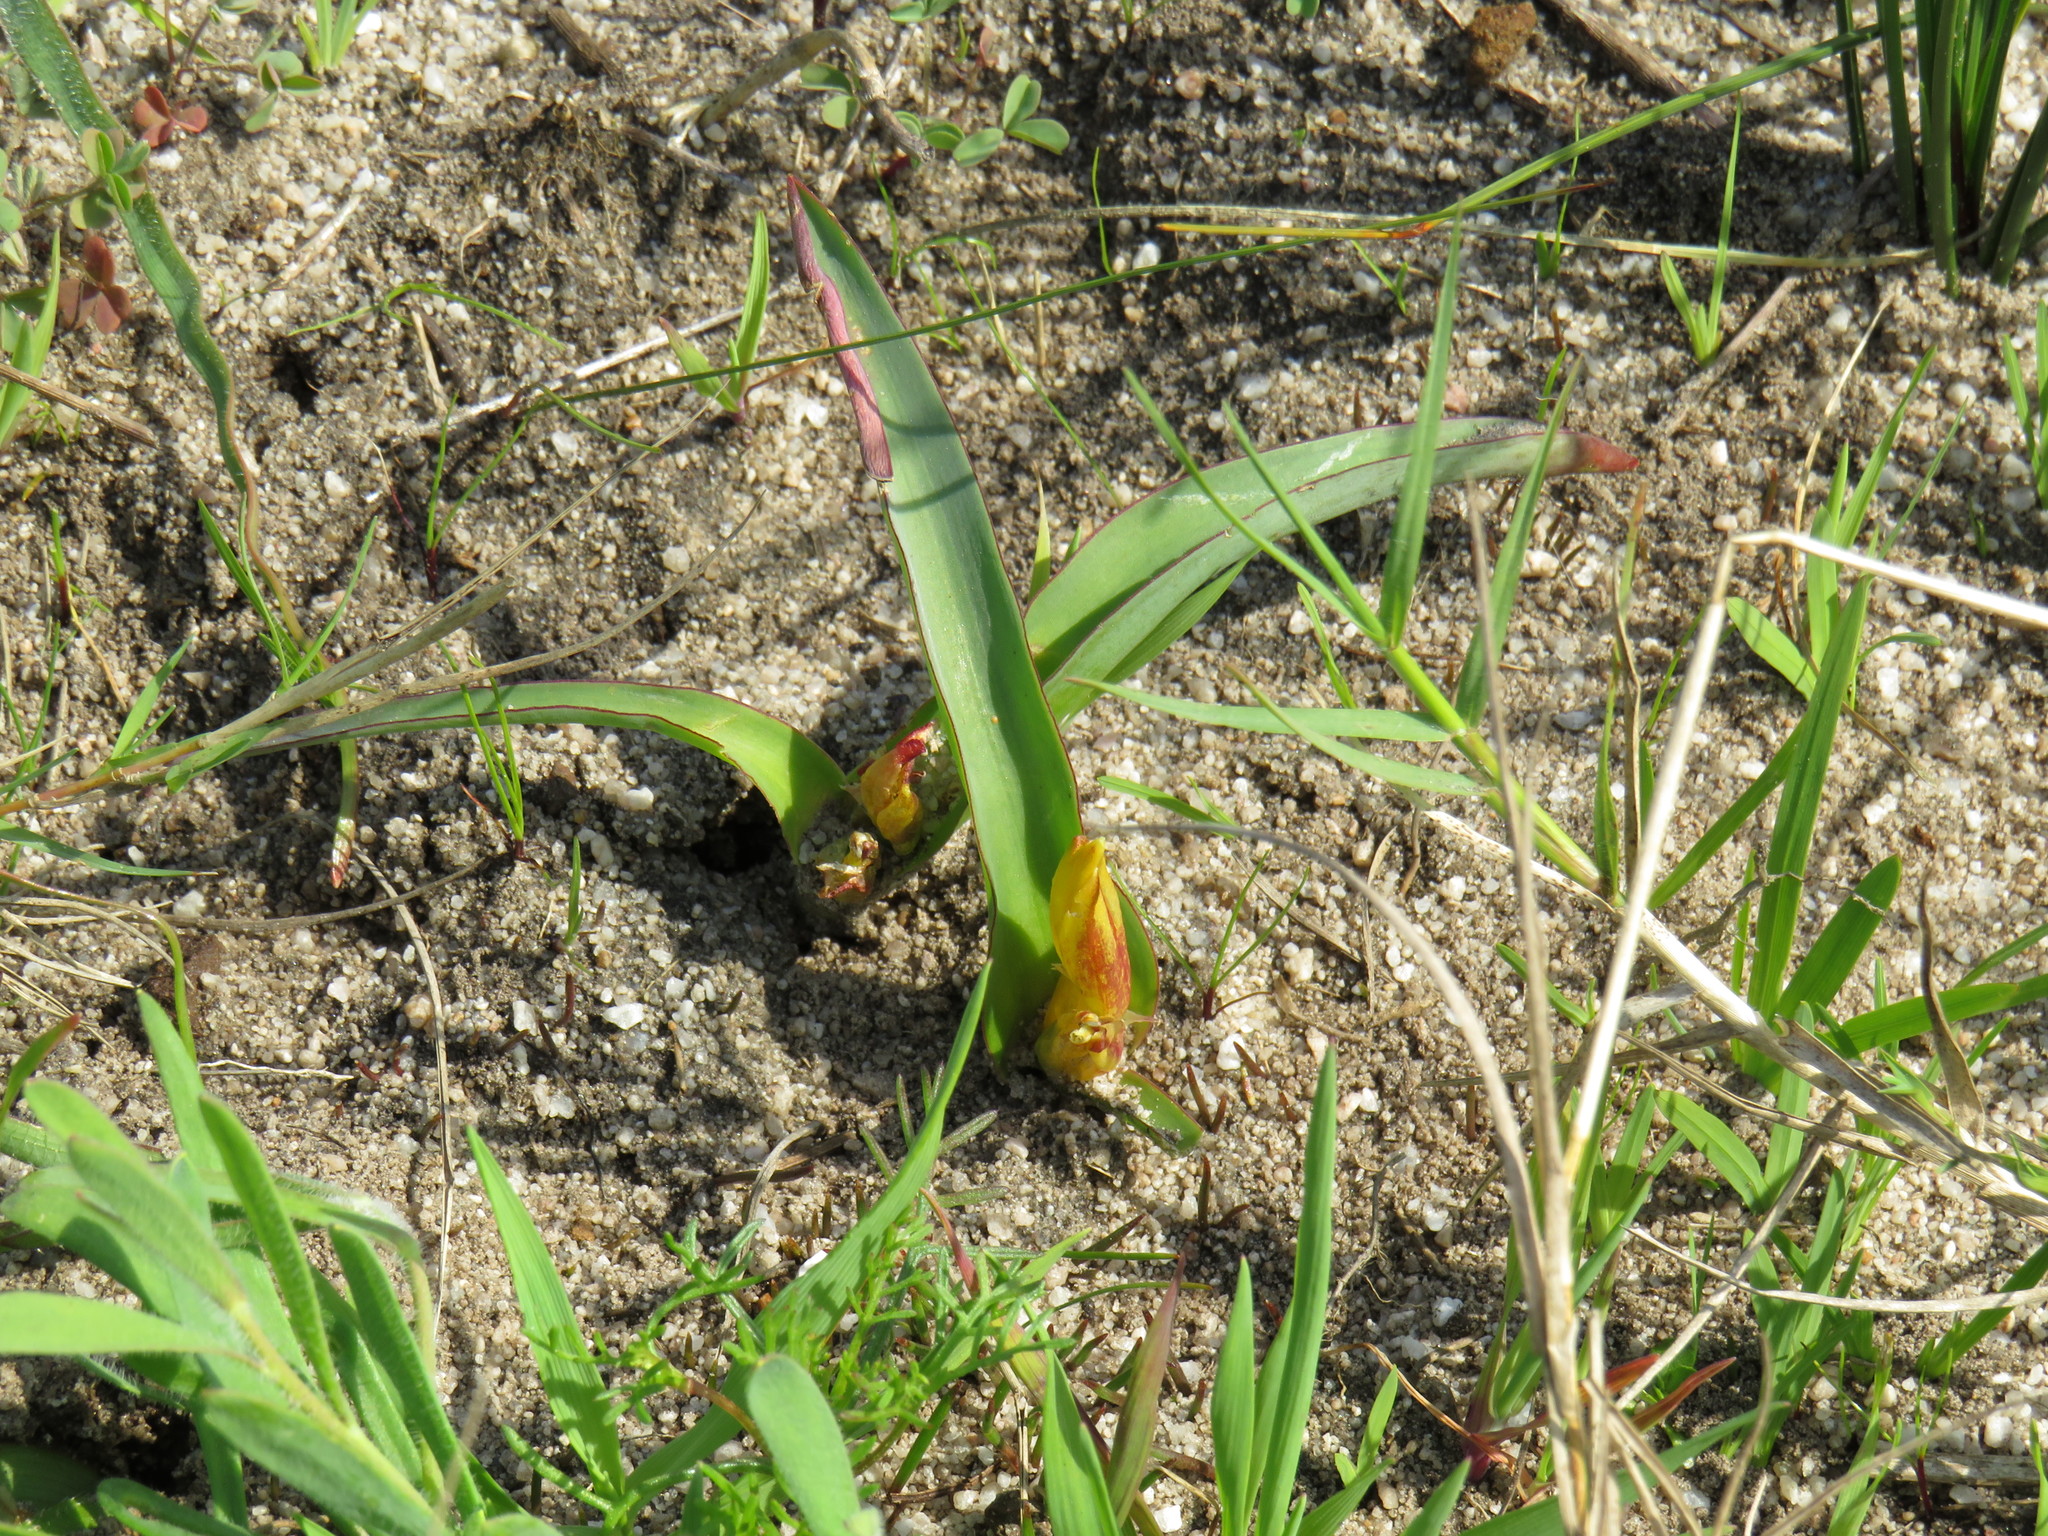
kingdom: Plantae
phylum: Tracheophyta
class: Liliopsida
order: Asparagales
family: Asparagaceae
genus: Lachenalia
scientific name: Lachenalia reflexa
